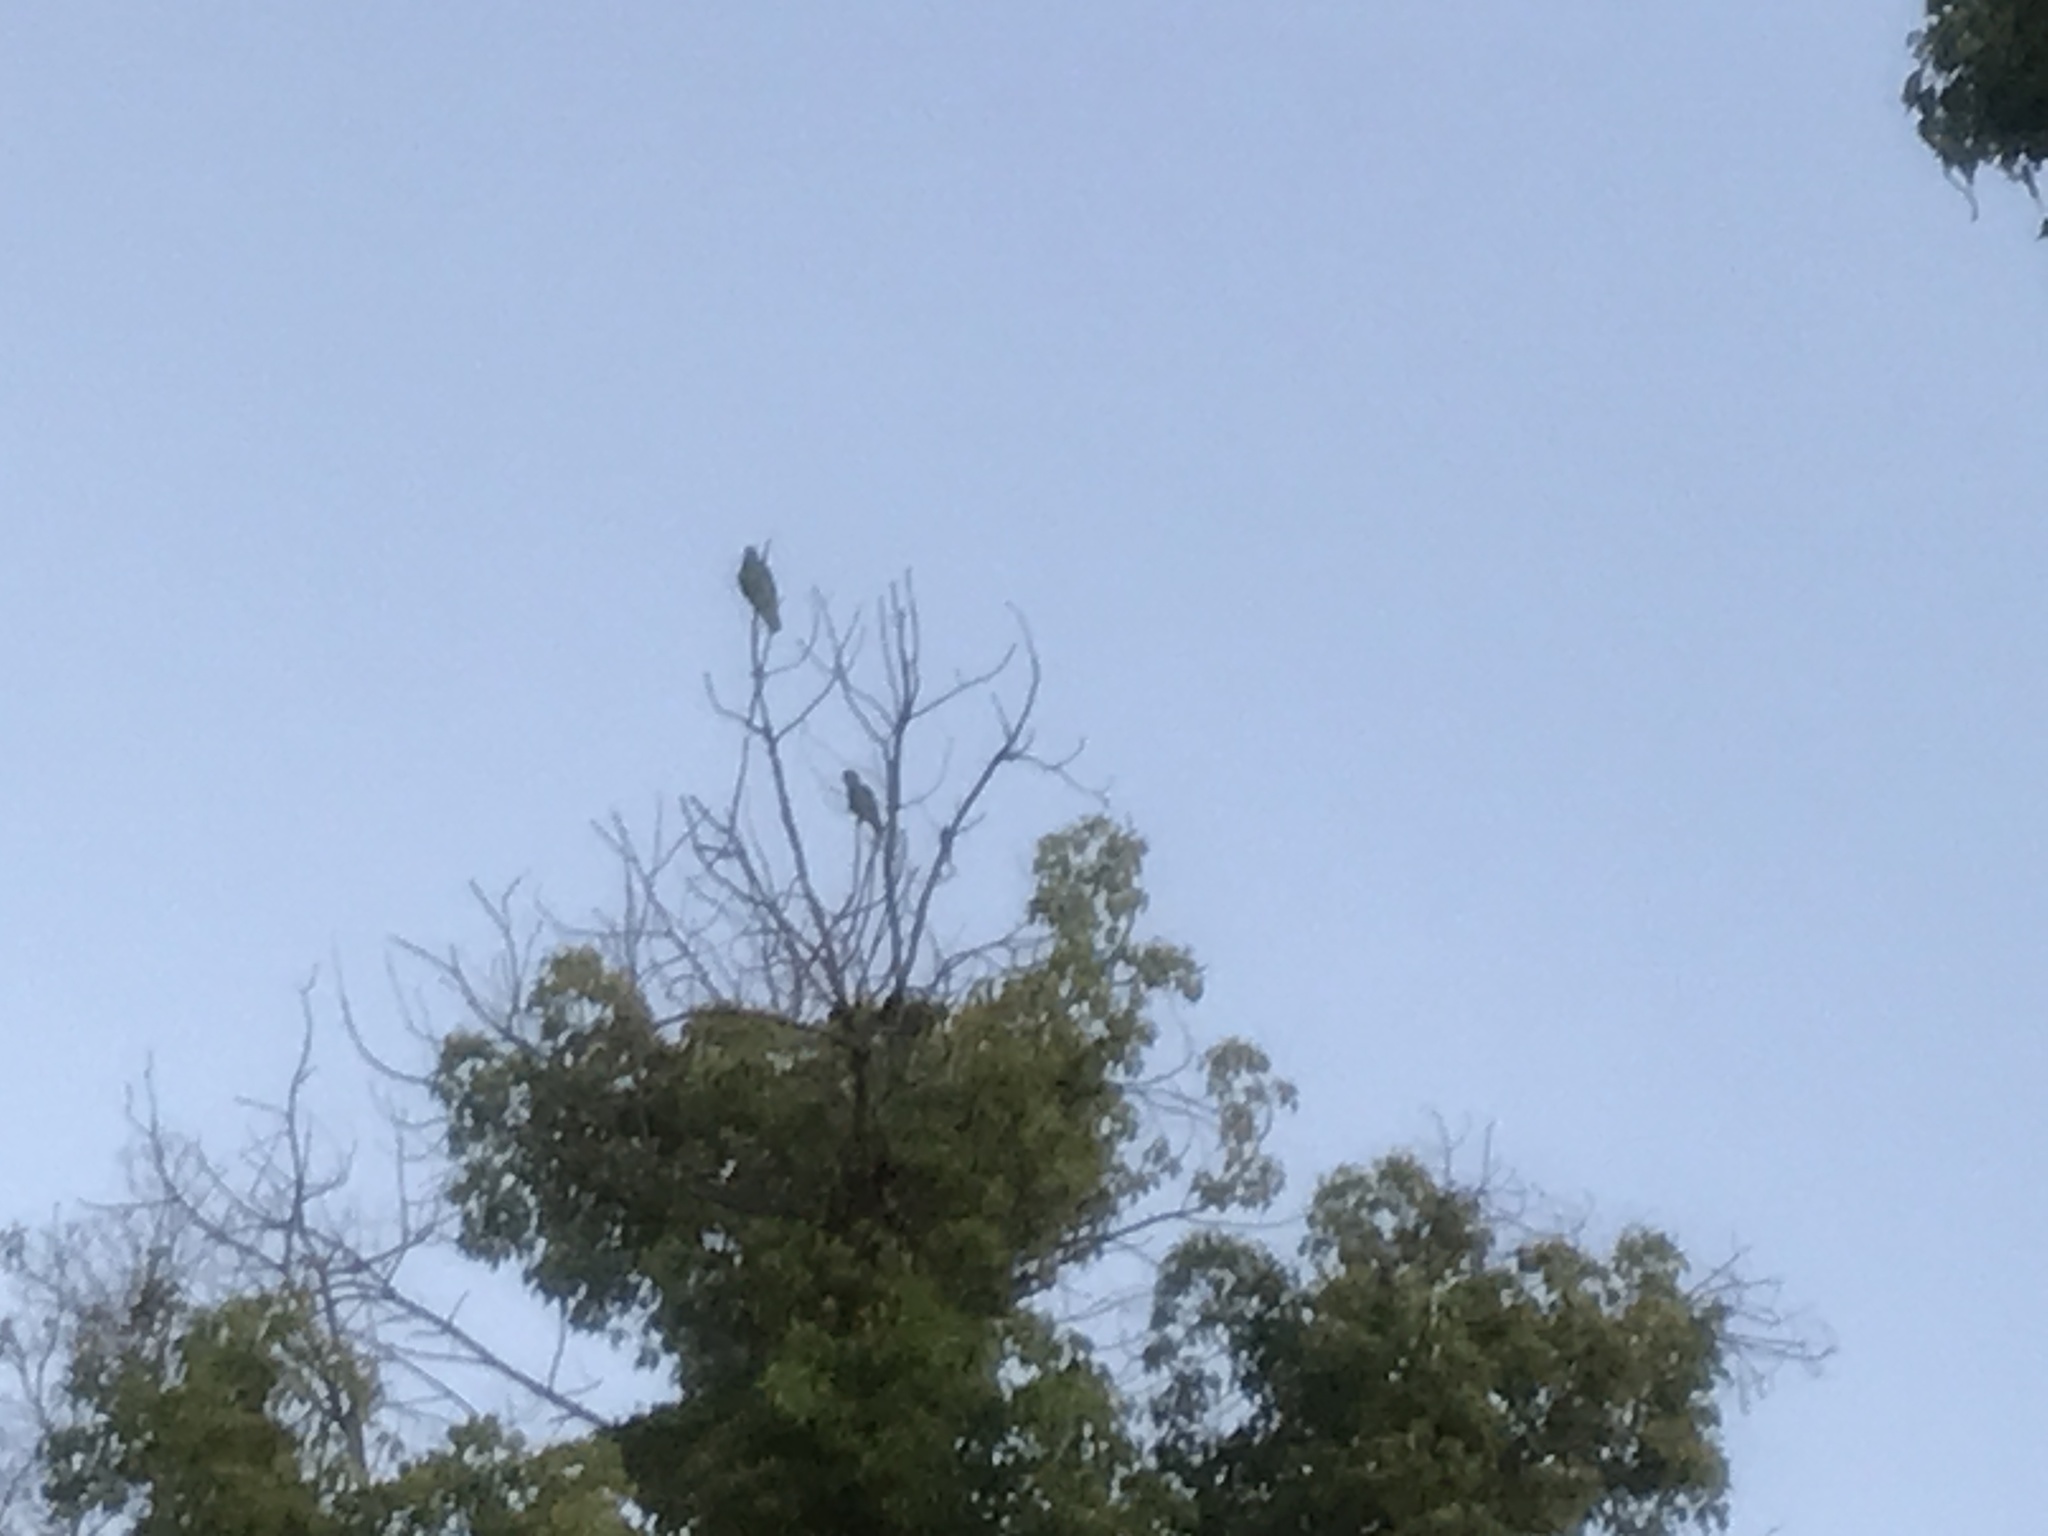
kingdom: Animalia
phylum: Chordata
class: Aves
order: Psittaciformes
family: Psittacidae
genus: Amazona
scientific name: Amazona
